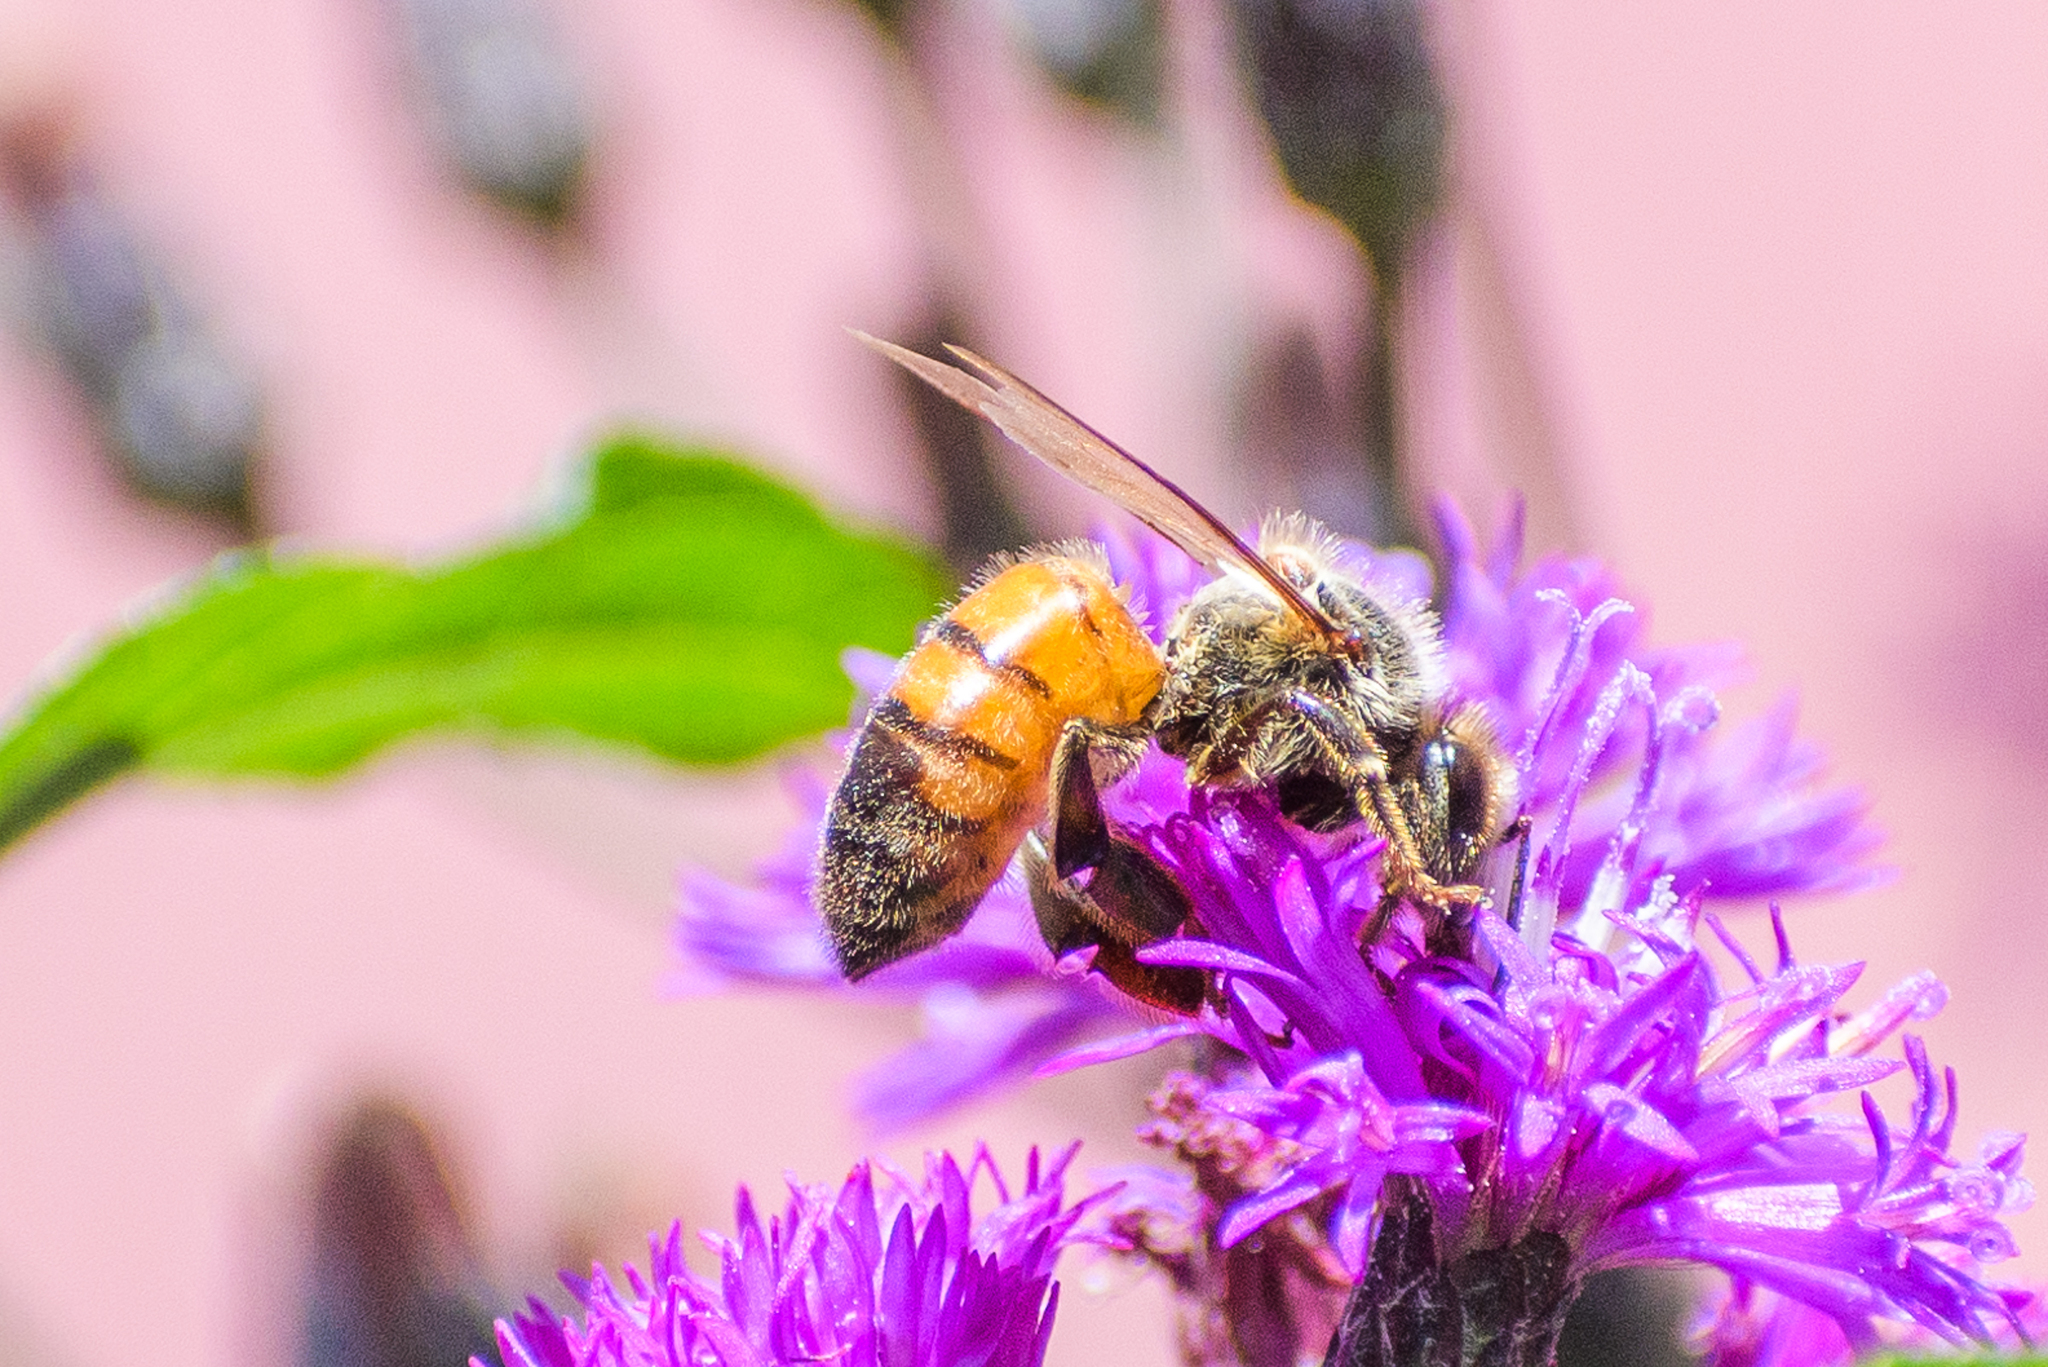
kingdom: Animalia
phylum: Arthropoda
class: Insecta
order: Hymenoptera
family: Apidae
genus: Apis
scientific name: Apis mellifera
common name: Honey bee
